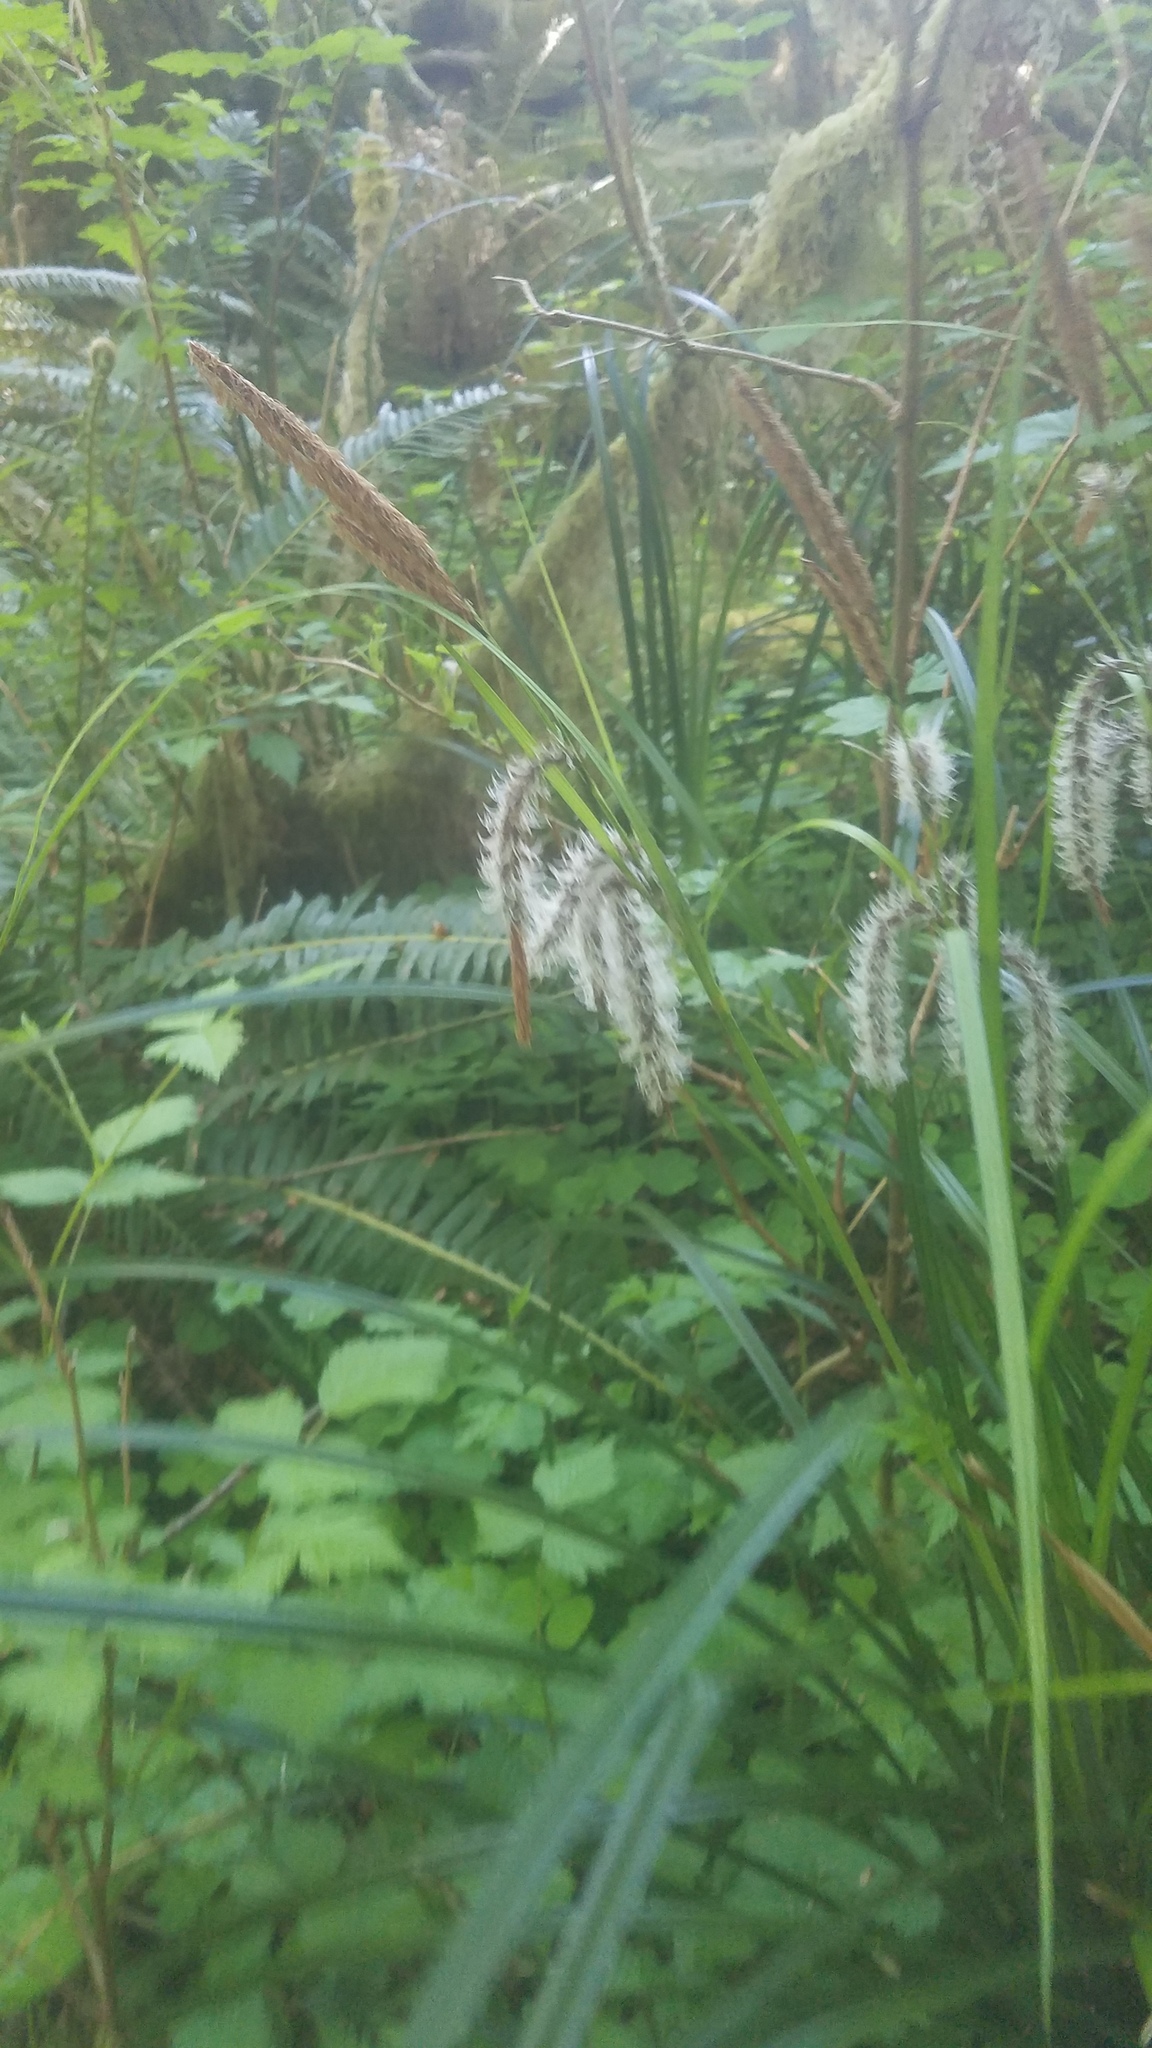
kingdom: Plantae
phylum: Tracheophyta
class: Liliopsida
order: Poales
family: Cyperaceae
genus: Carex
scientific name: Carex obnupta
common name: Slough sedge
